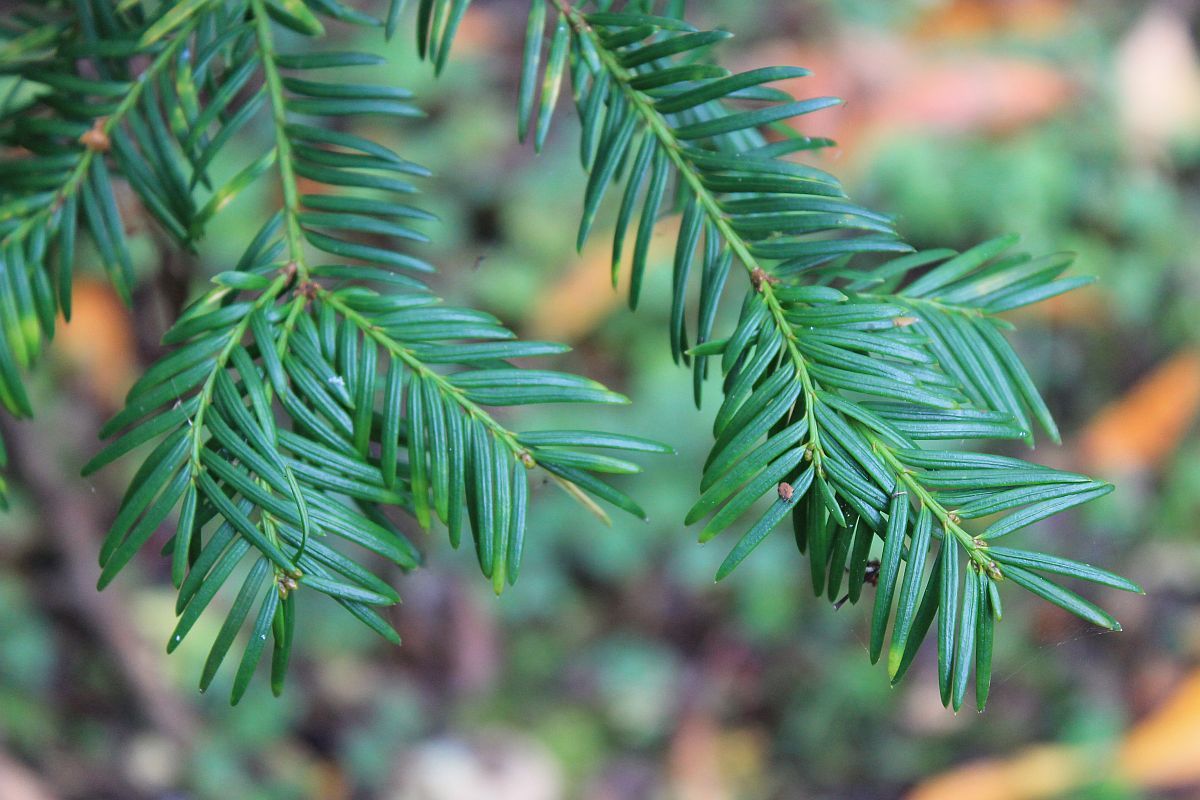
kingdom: Plantae
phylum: Tracheophyta
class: Pinopsida
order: Pinales
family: Taxaceae
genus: Taxus
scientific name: Taxus baccata
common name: Yew
